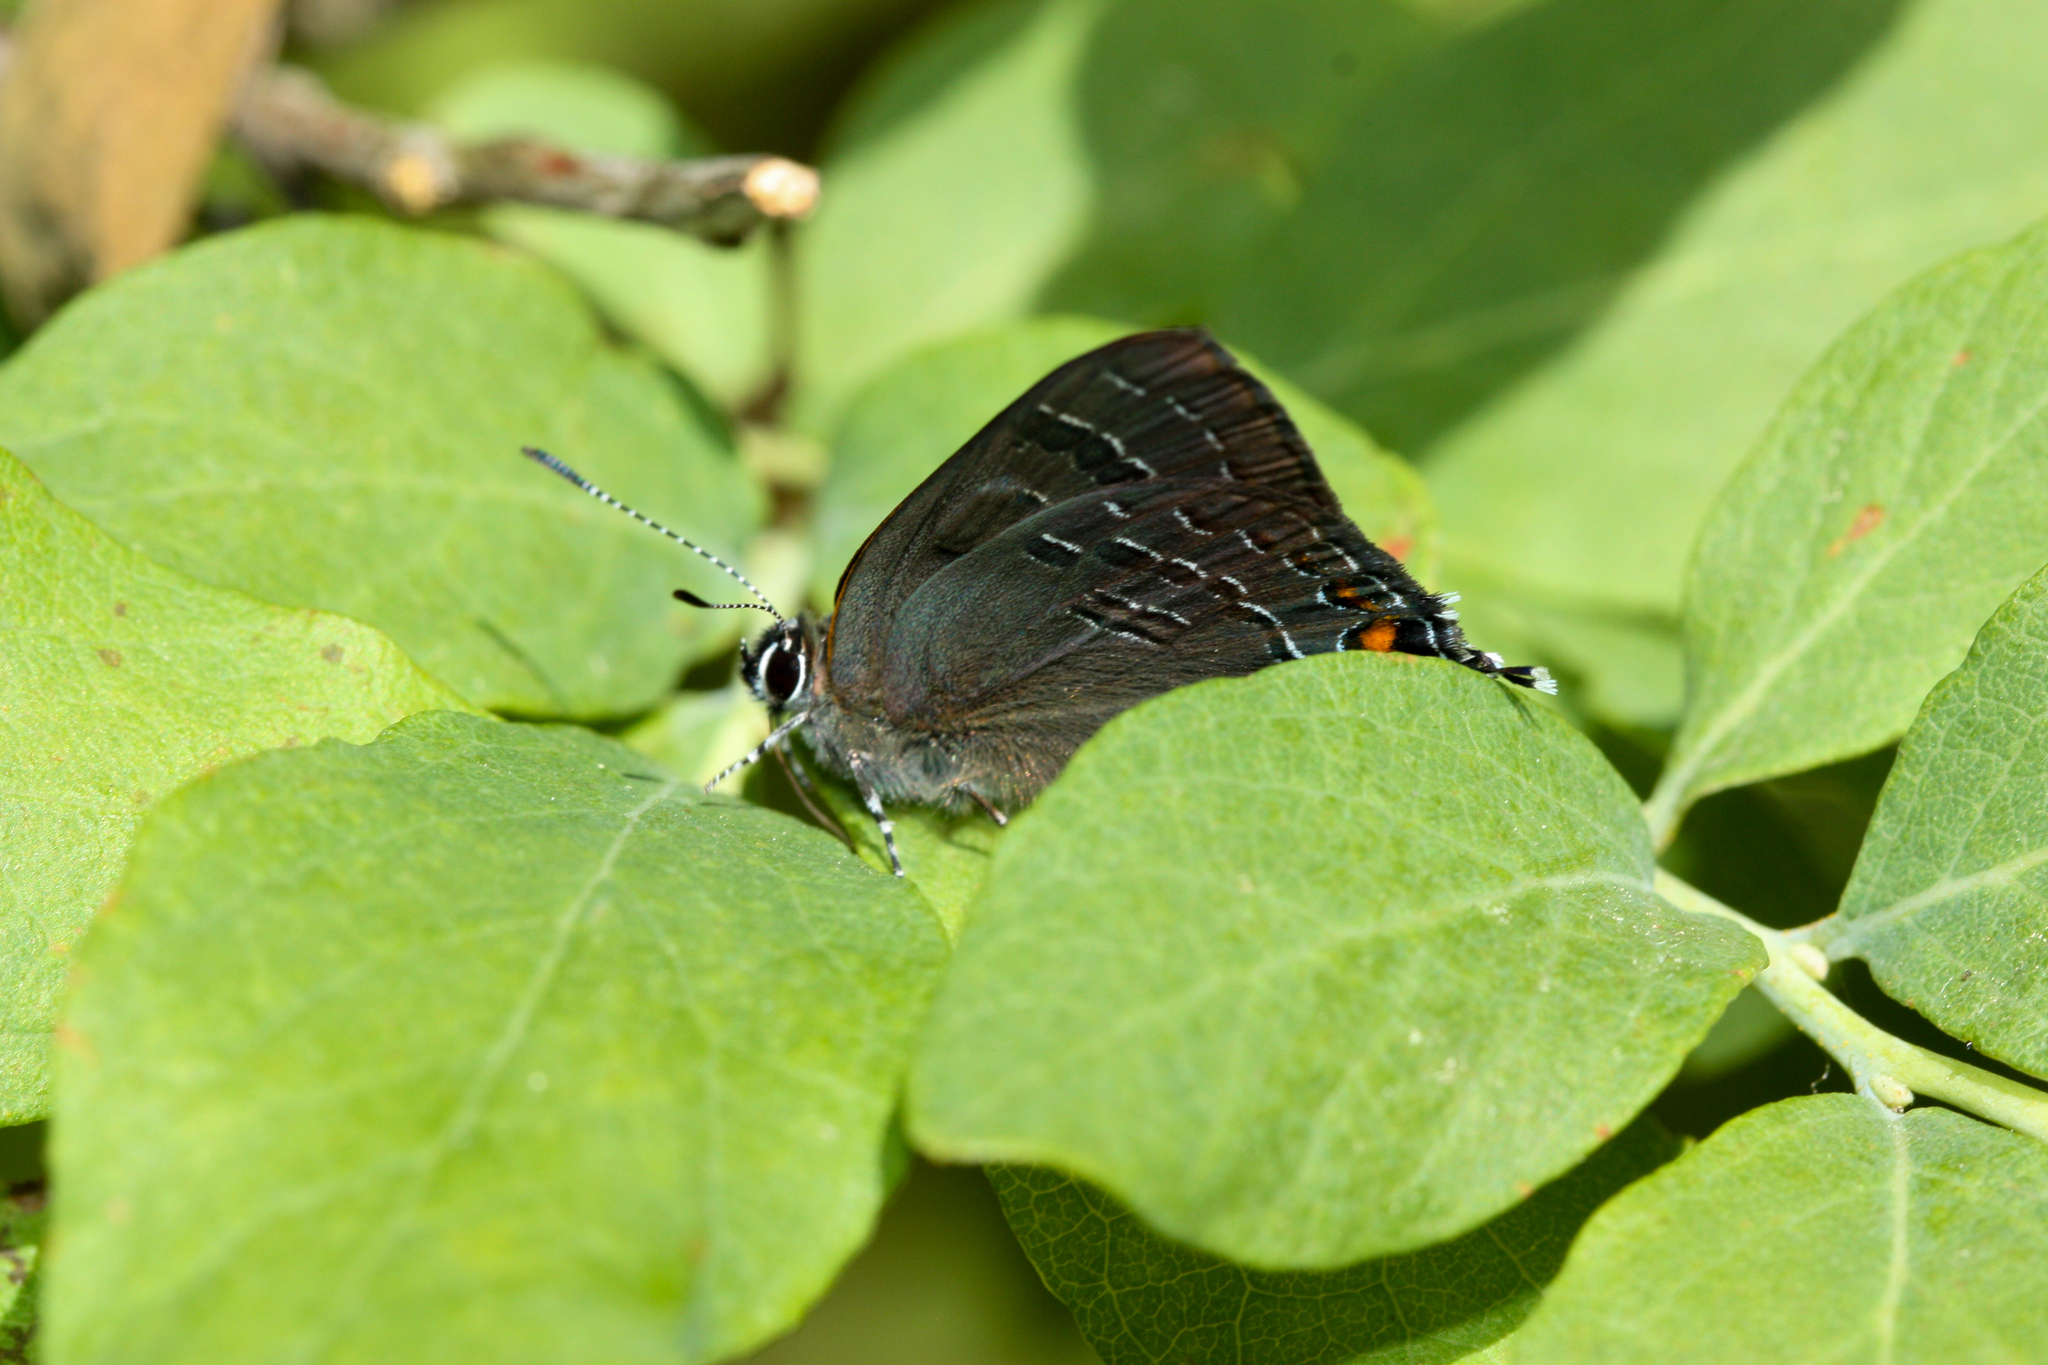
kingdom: Animalia
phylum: Arthropoda
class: Insecta
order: Lepidoptera
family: Lycaenidae
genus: Satyrium
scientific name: Satyrium calanus
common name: Banded hairstreak
